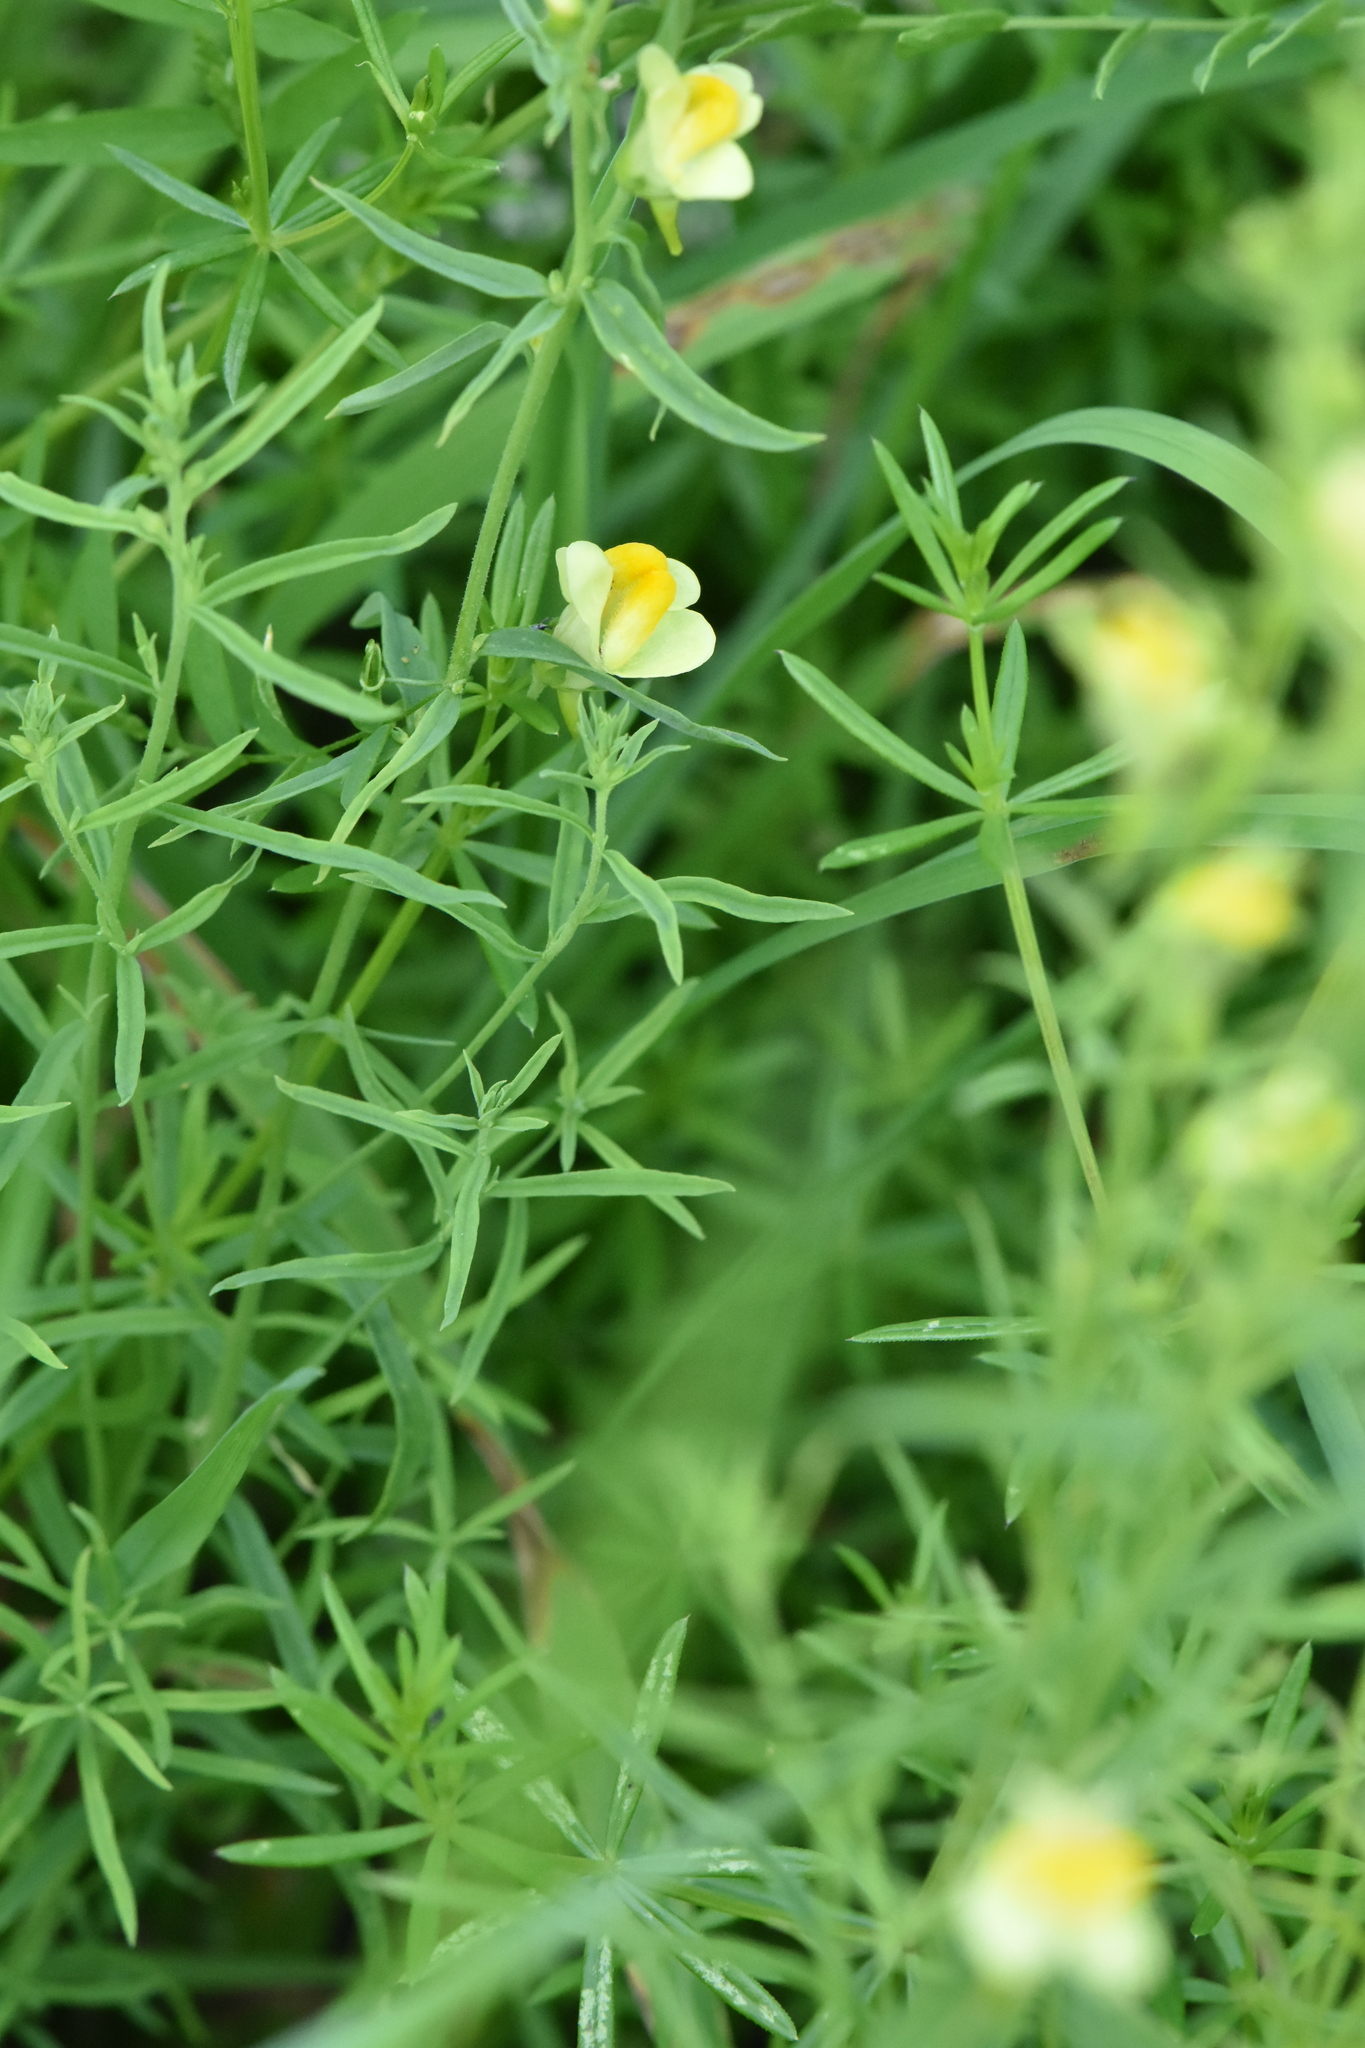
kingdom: Plantae
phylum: Tracheophyta
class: Magnoliopsida
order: Lamiales
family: Plantaginaceae
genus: Linaria
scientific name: Linaria vulgaris
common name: Butter and eggs
